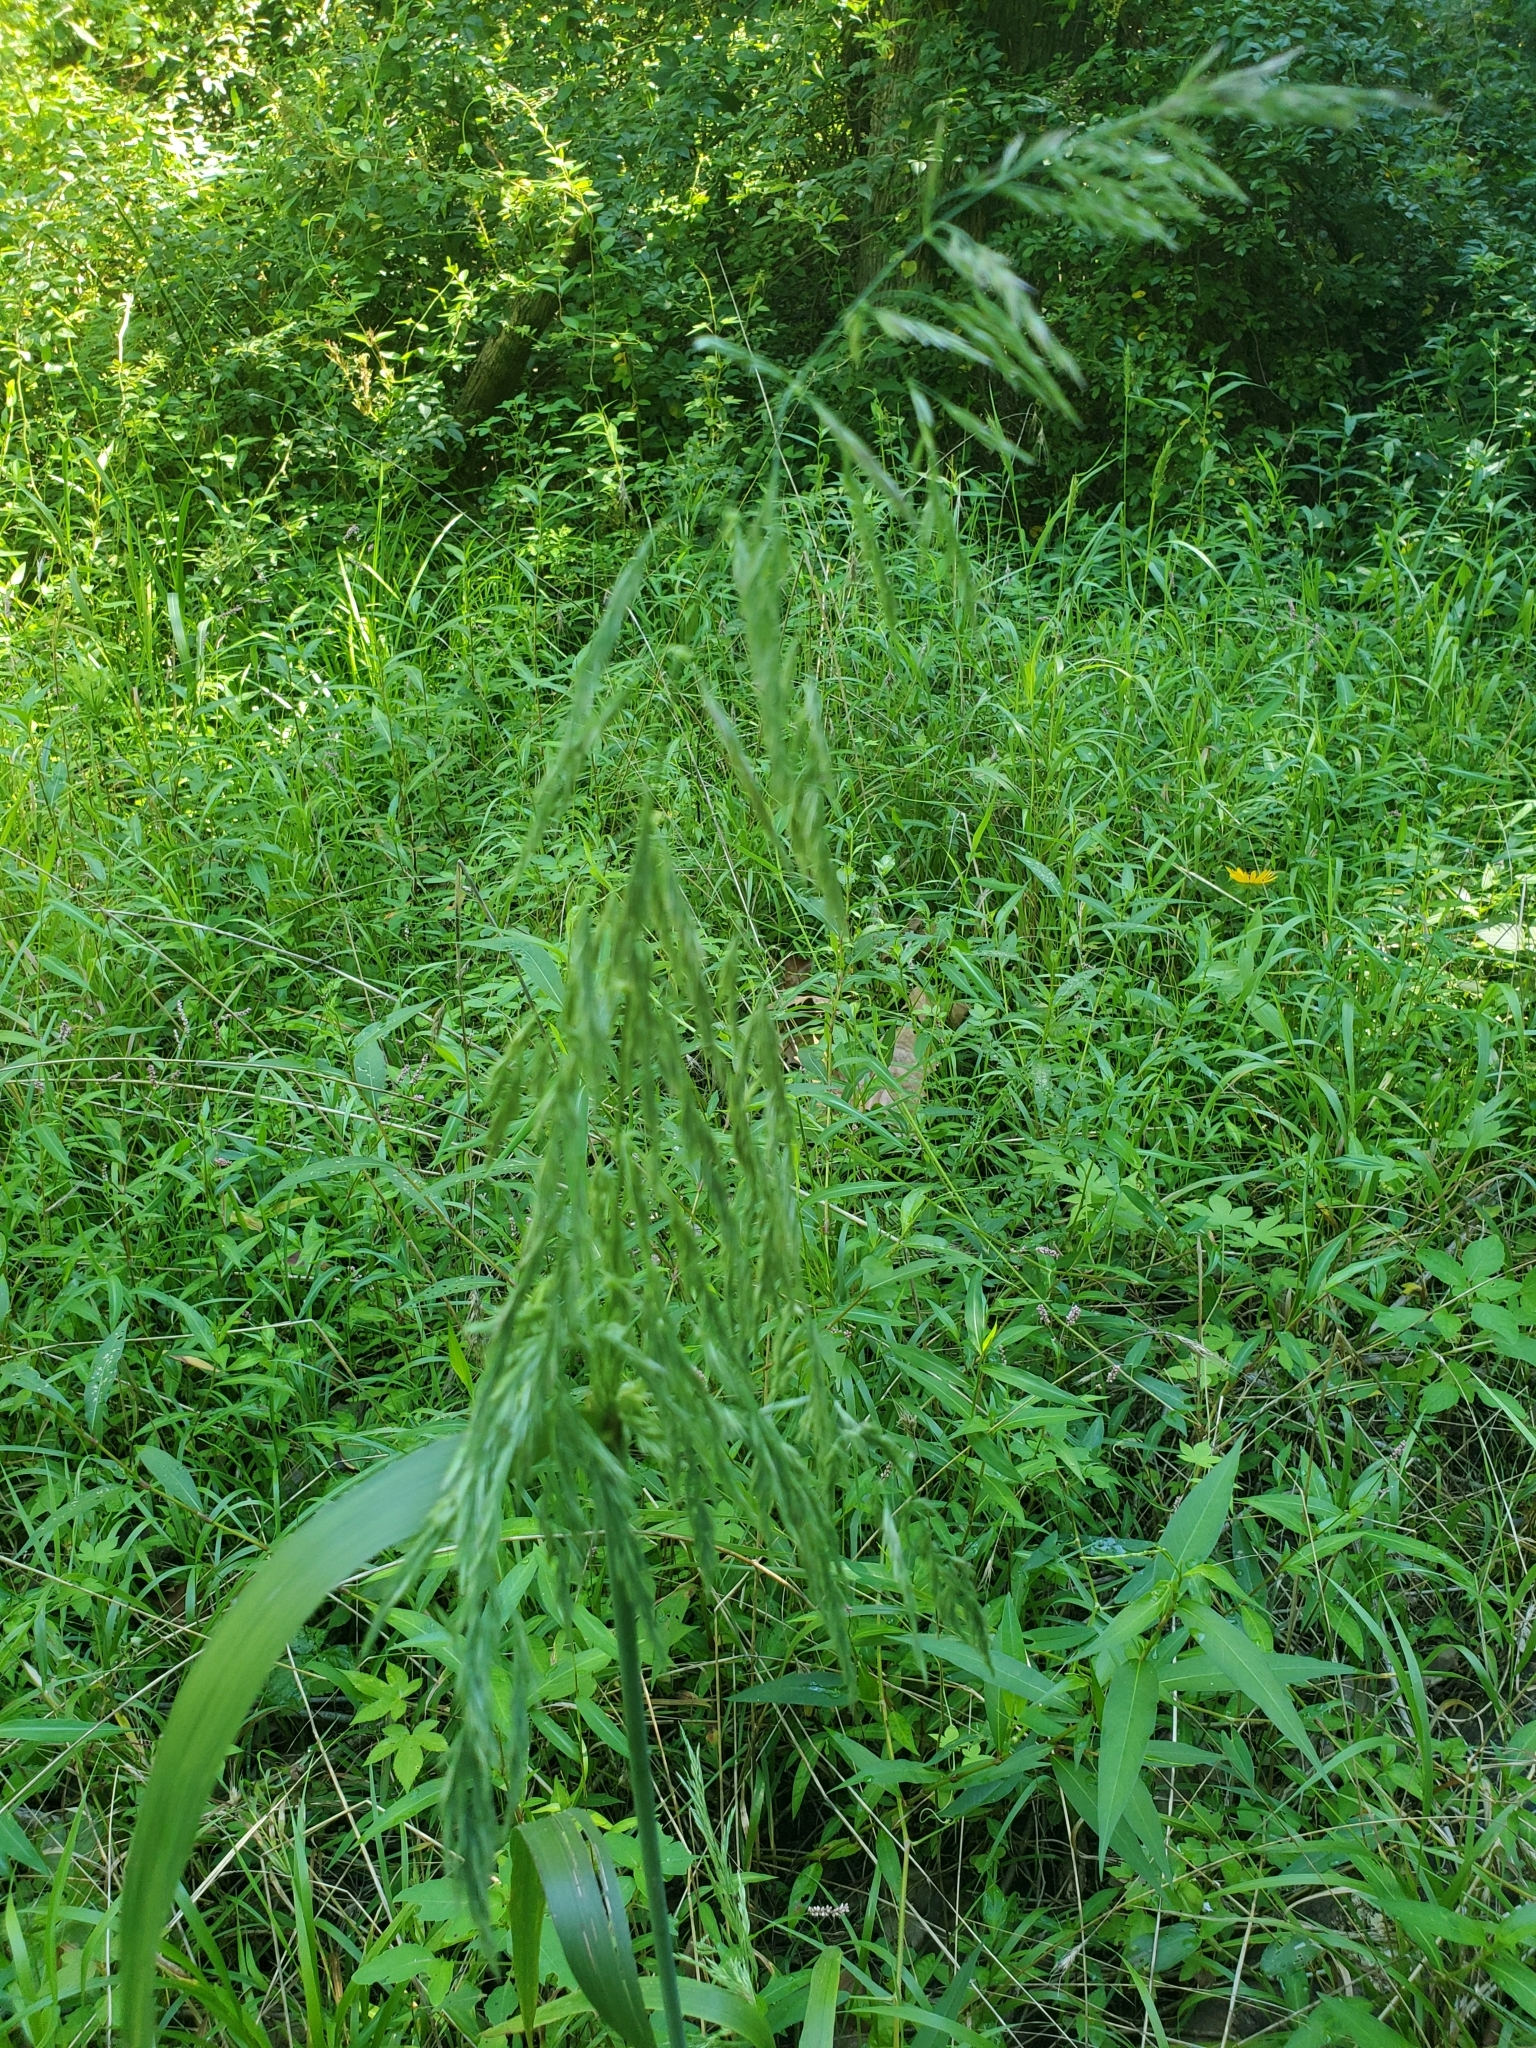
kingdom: Plantae
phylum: Tracheophyta
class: Liliopsida
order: Poales
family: Poaceae
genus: Cinna
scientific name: Cinna arundinacea
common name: Stout woodreed
